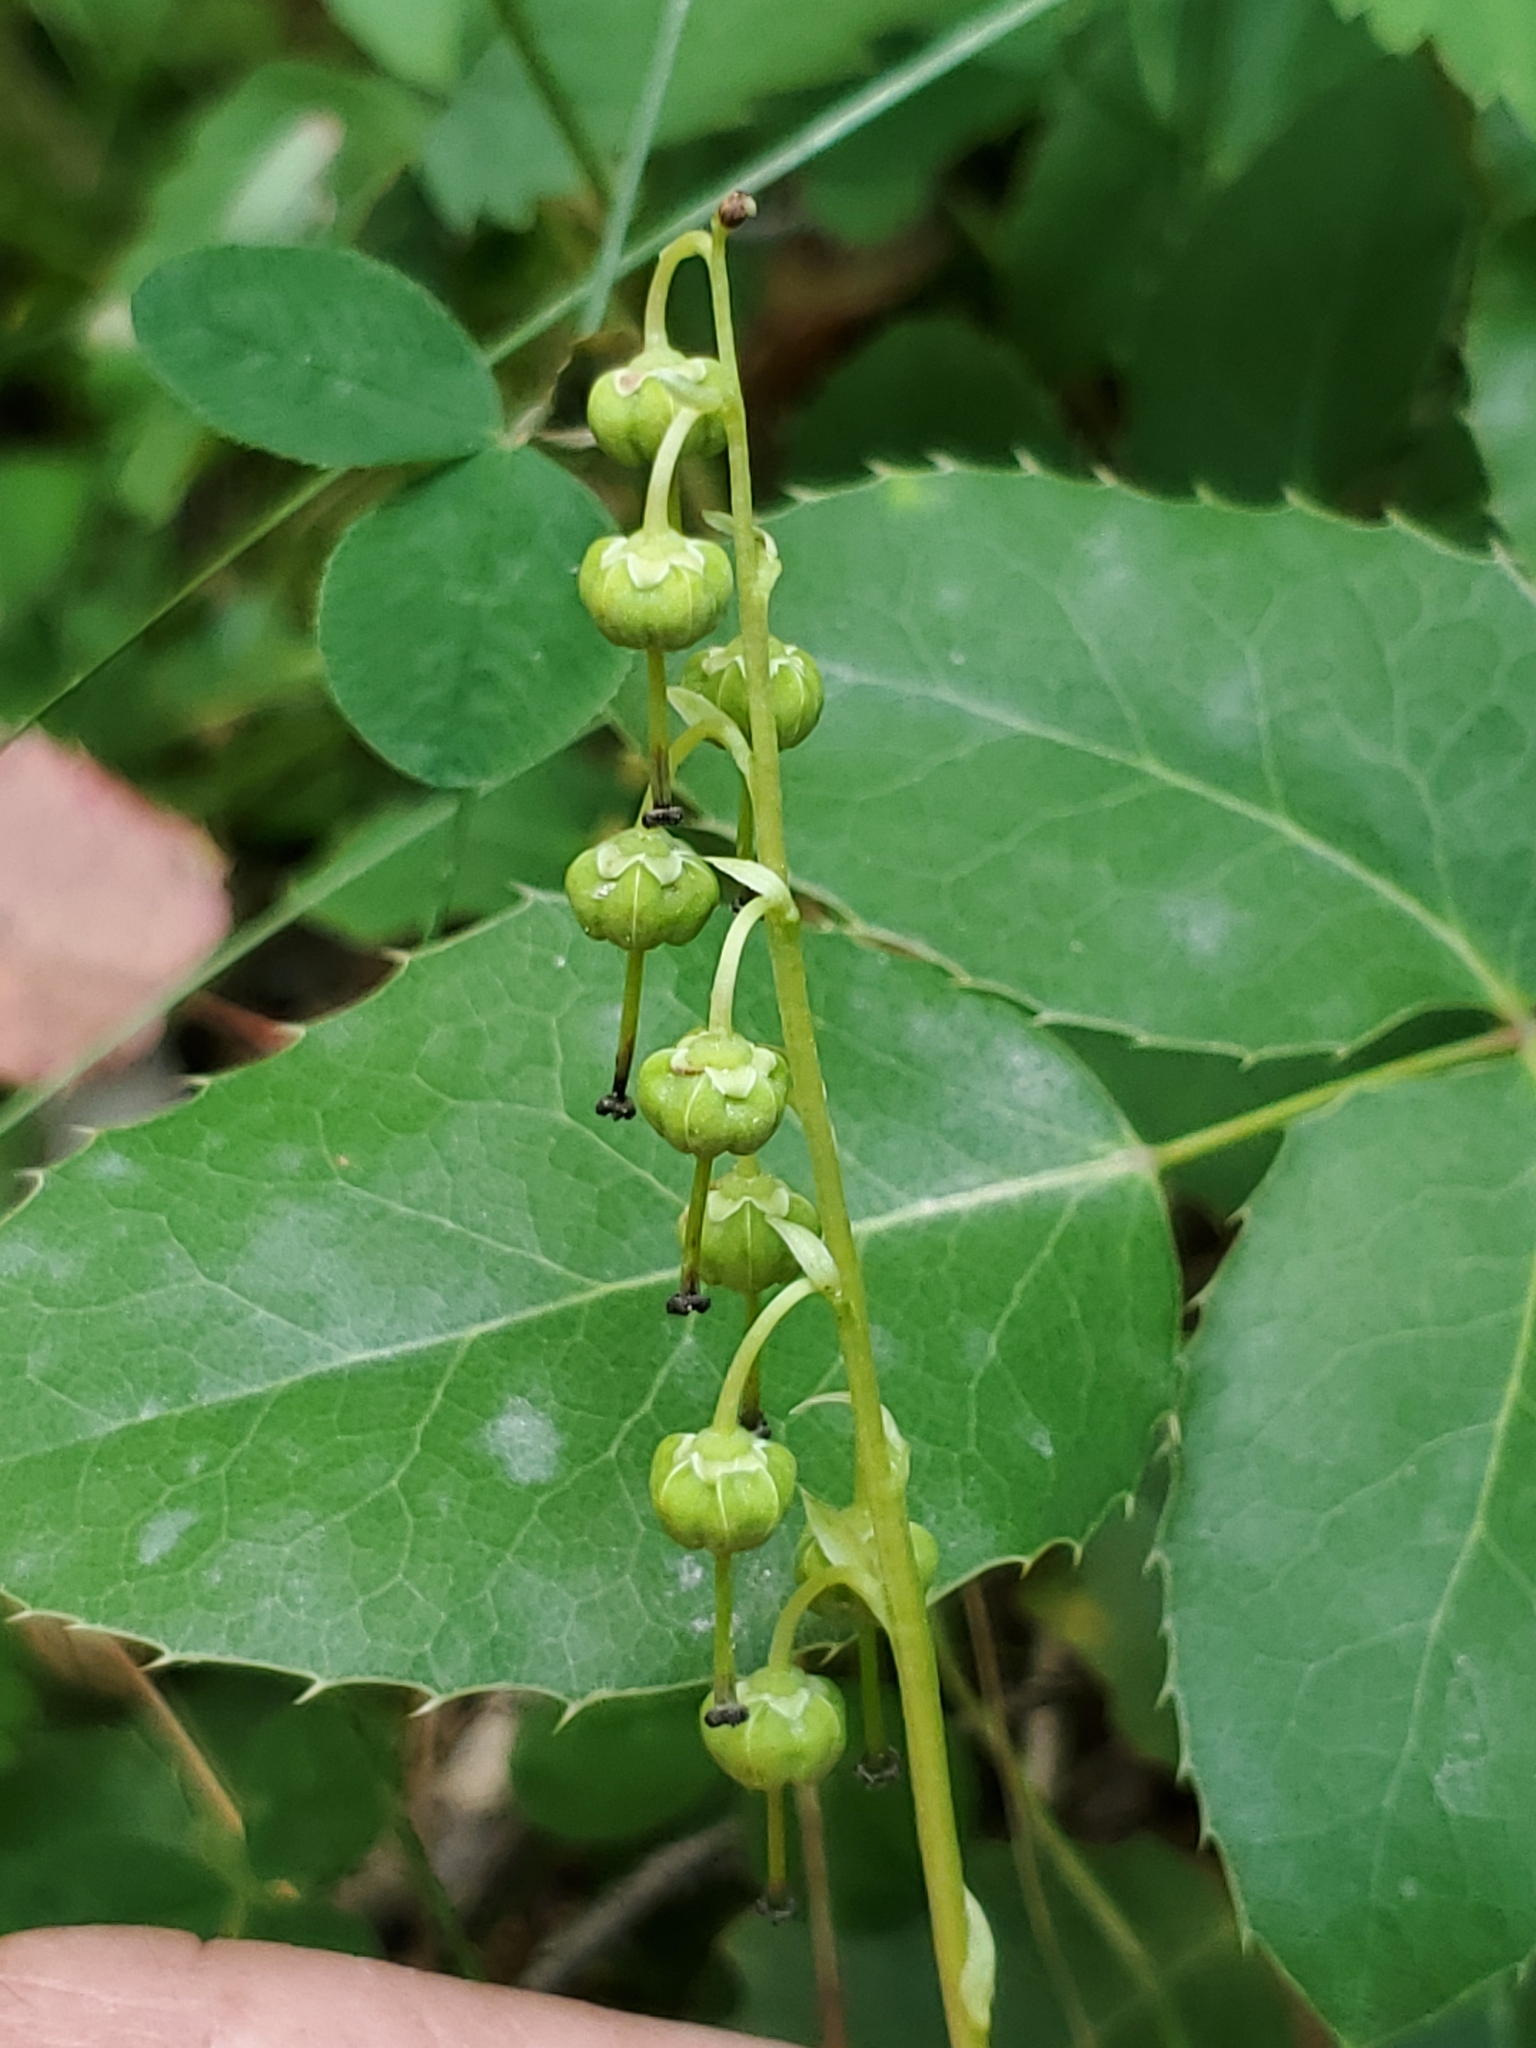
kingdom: Plantae
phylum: Tracheophyta
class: Magnoliopsida
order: Ericales
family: Ericaceae
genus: Orthilia
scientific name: Orthilia secunda
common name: One-sided orthilia
